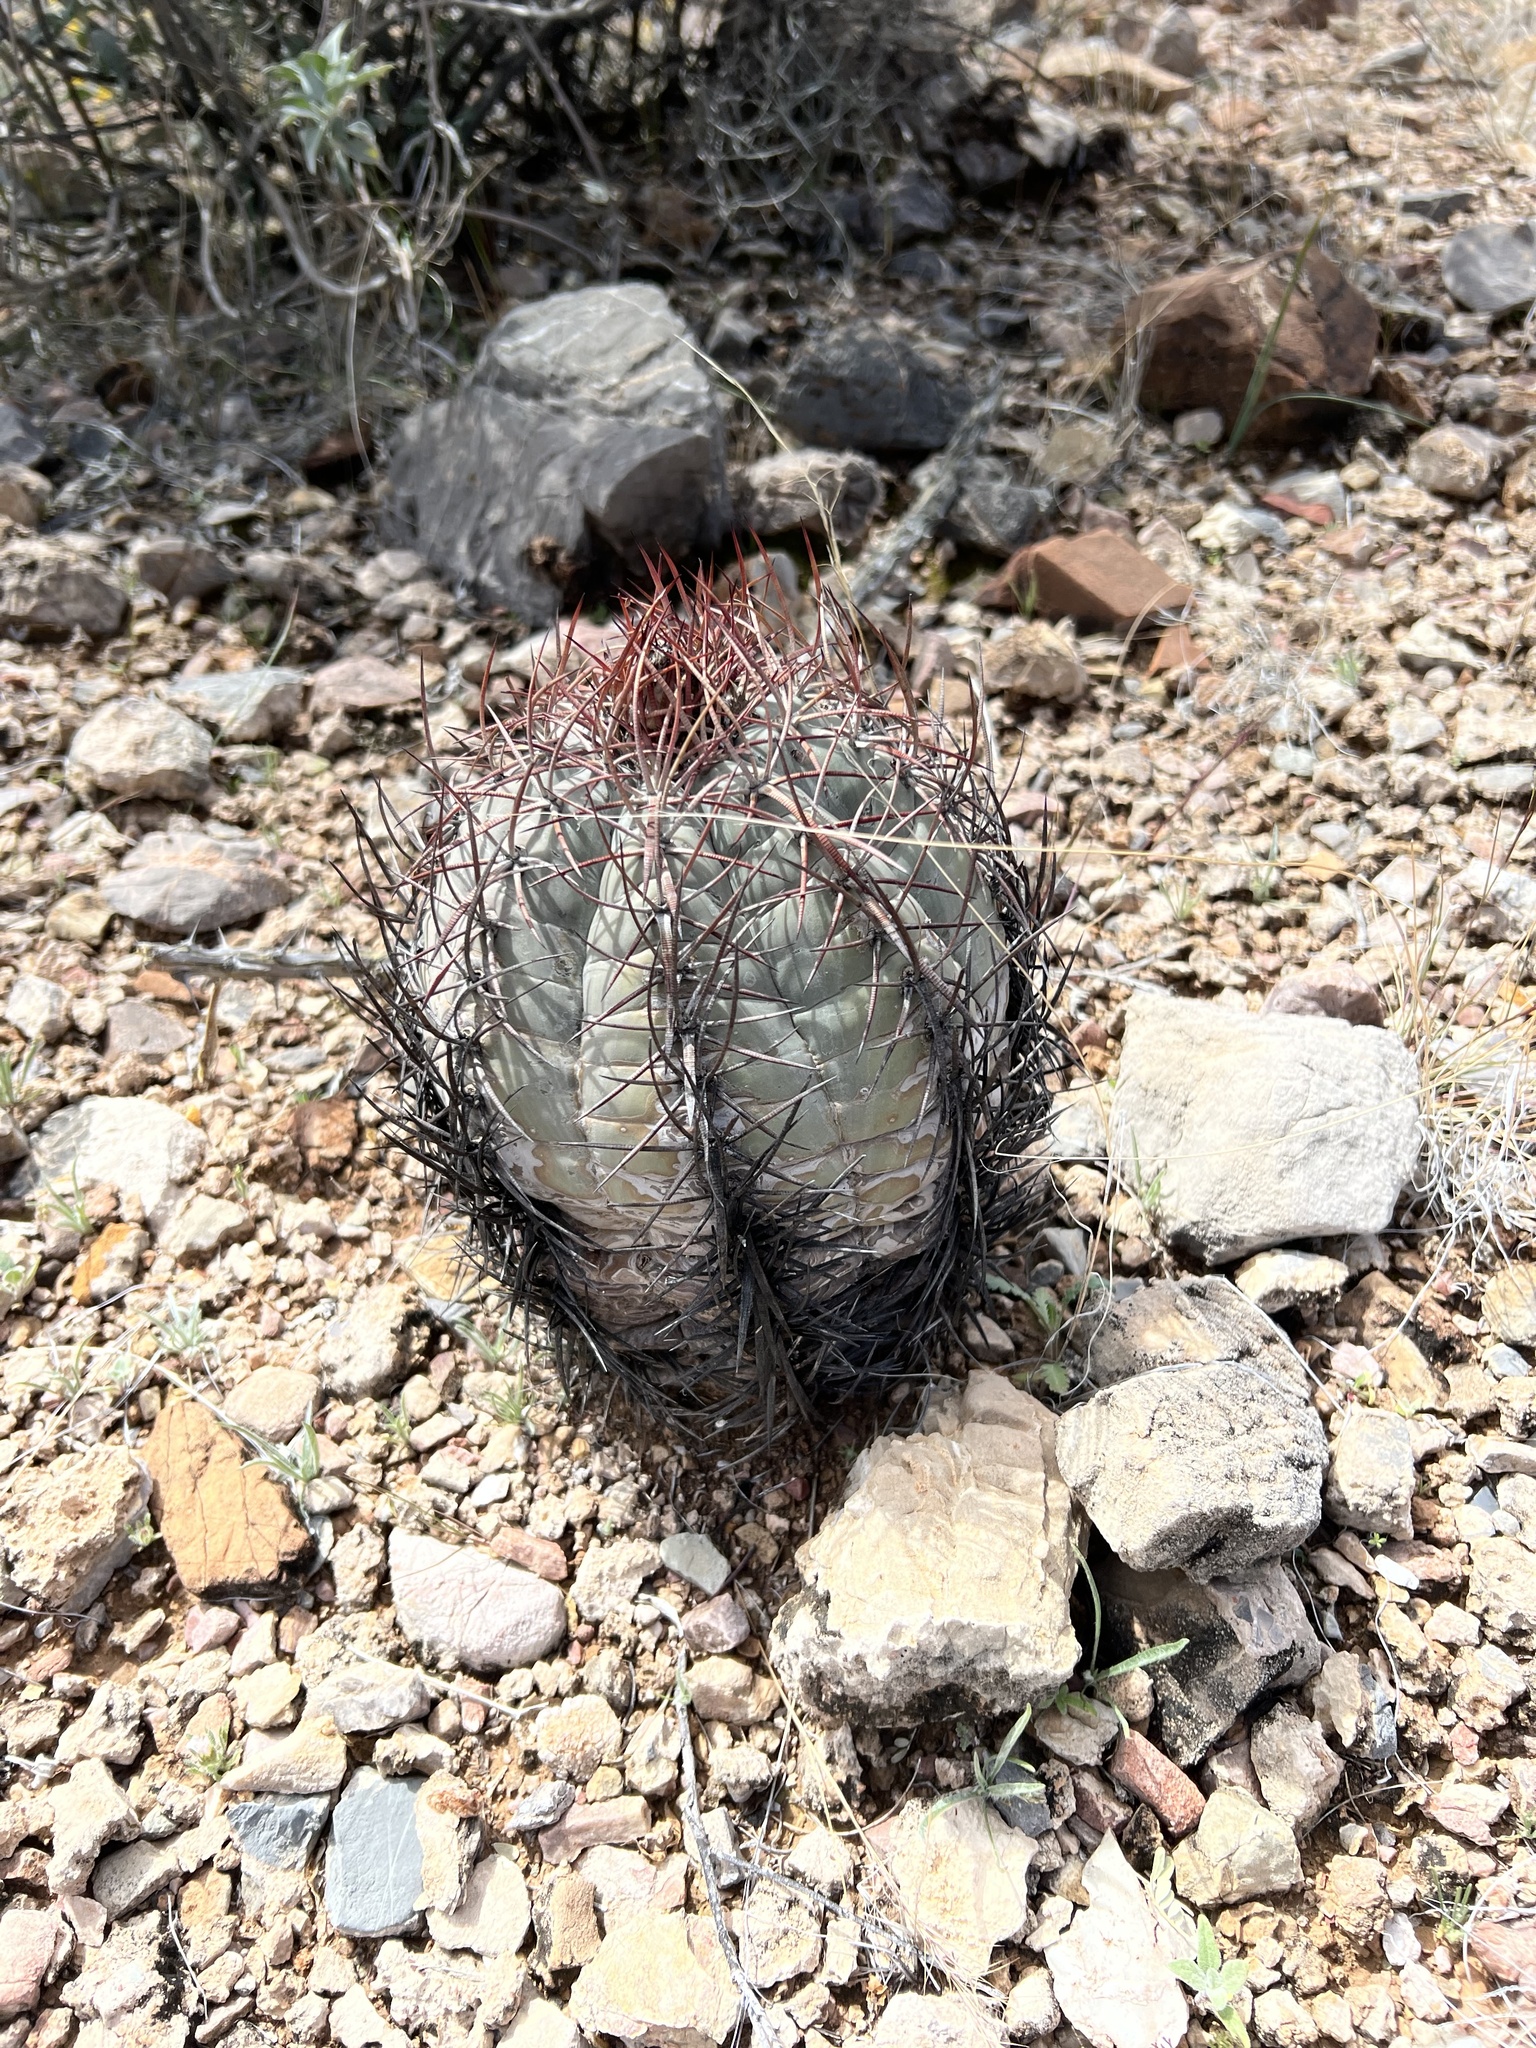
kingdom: Plantae
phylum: Tracheophyta
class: Magnoliopsida
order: Caryophyllales
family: Cactaceae
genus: Echinocactus
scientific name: Echinocactus horizonthalonius
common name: Devilshead
